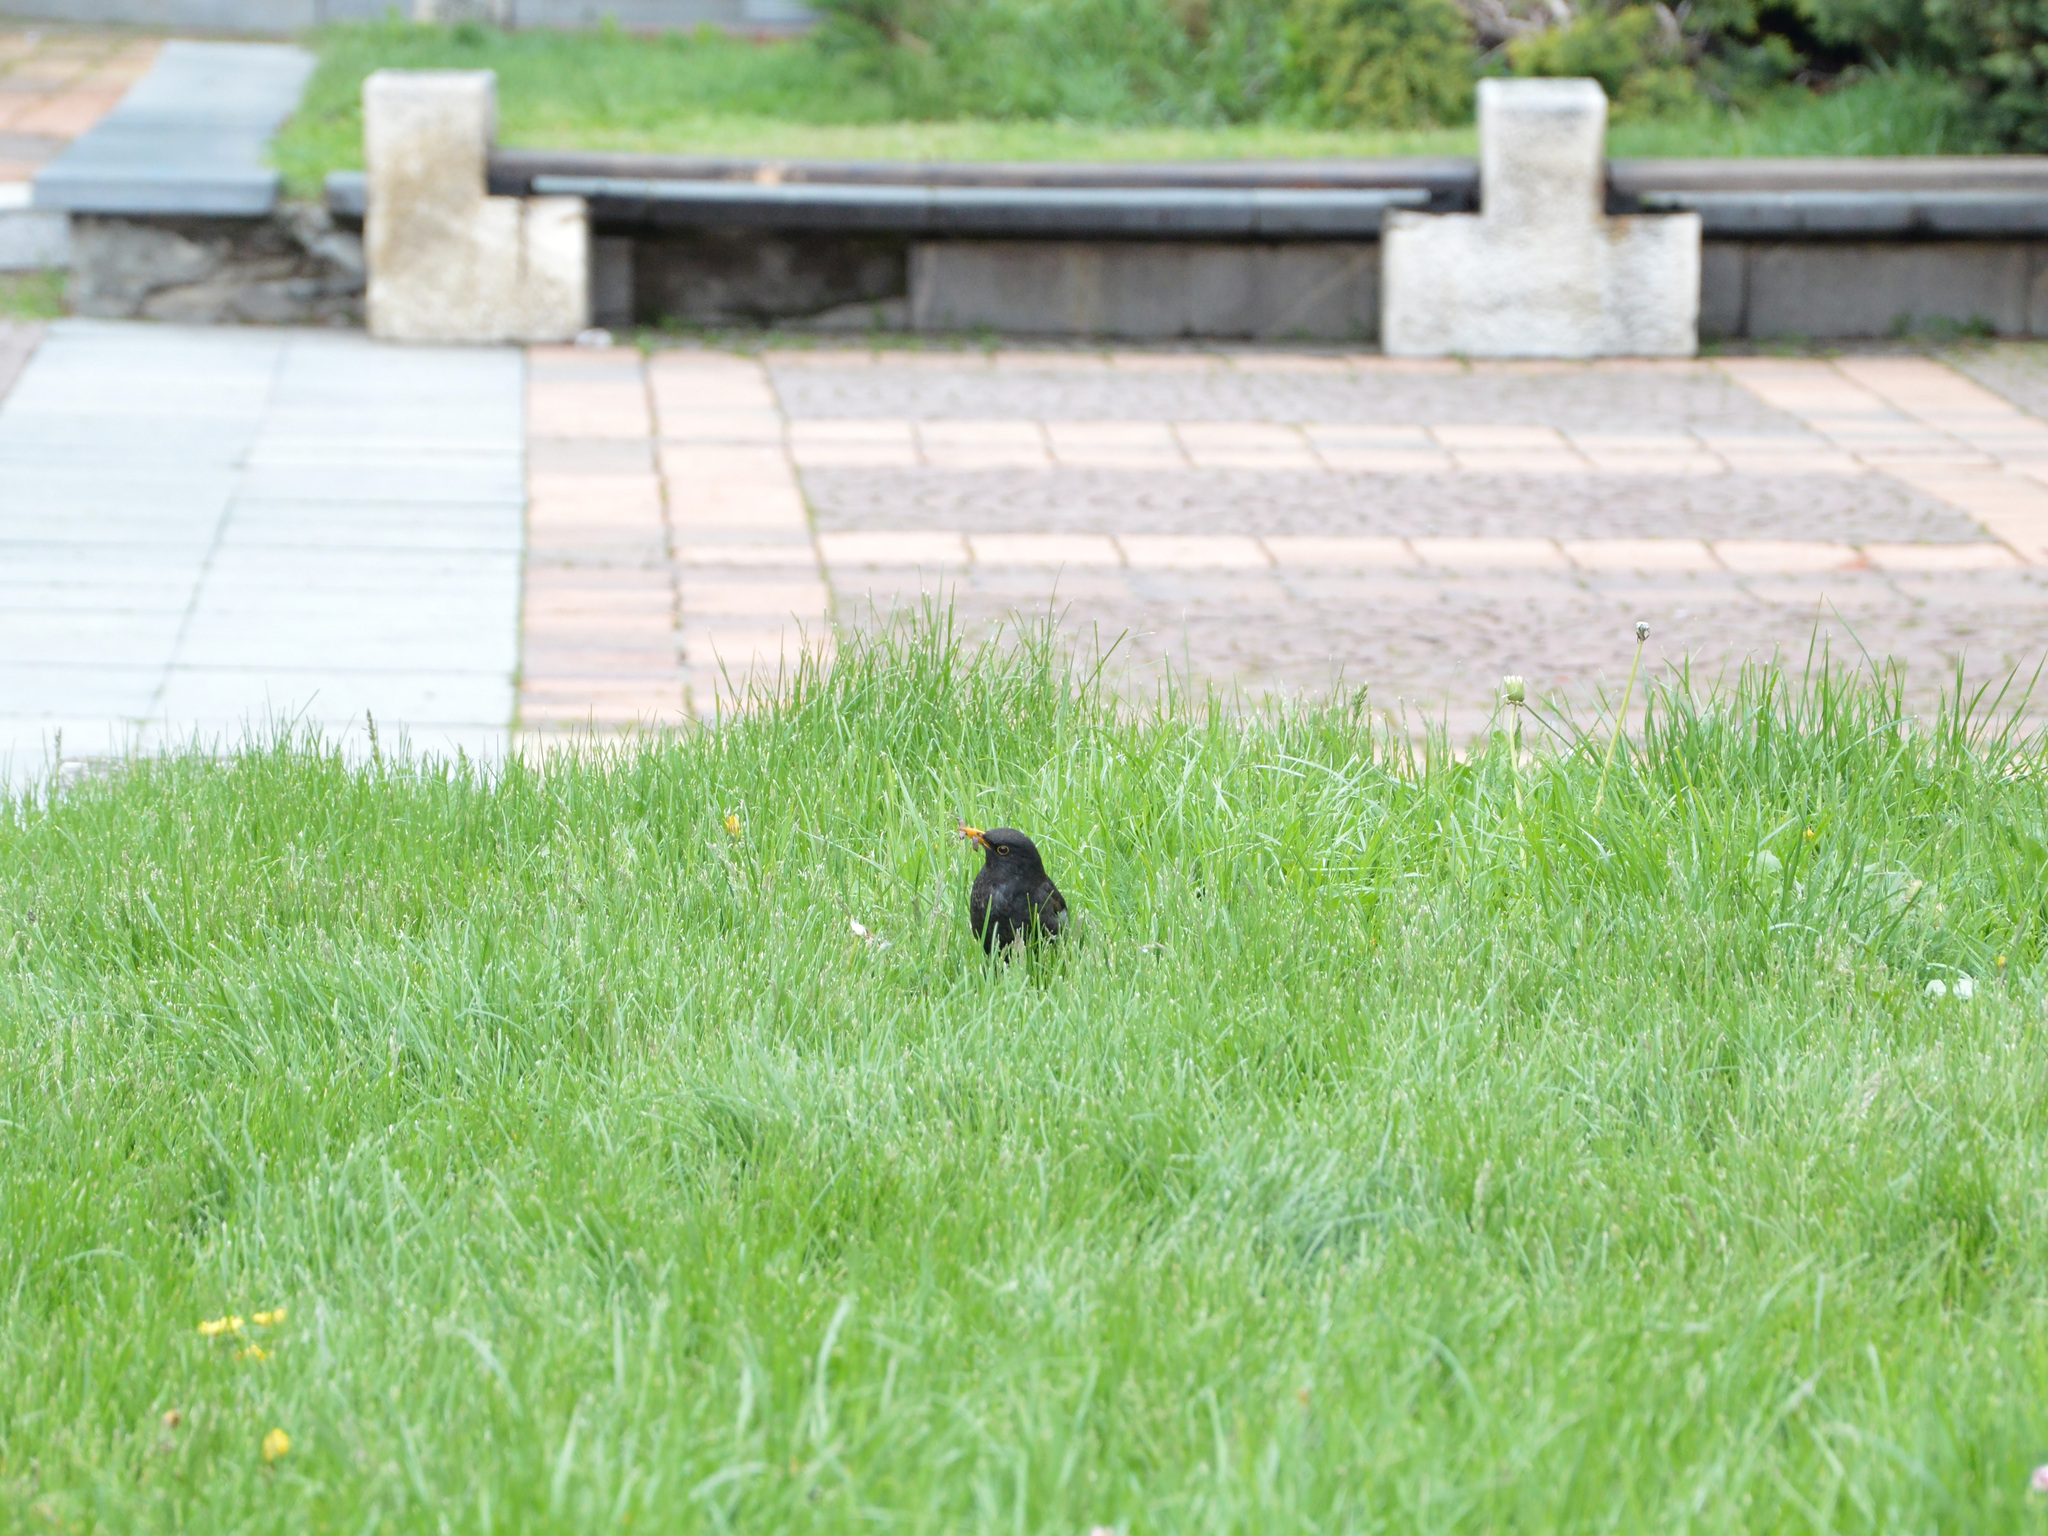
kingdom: Animalia
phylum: Chordata
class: Aves
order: Passeriformes
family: Turdidae
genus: Turdus
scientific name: Turdus merula
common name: Common blackbird
